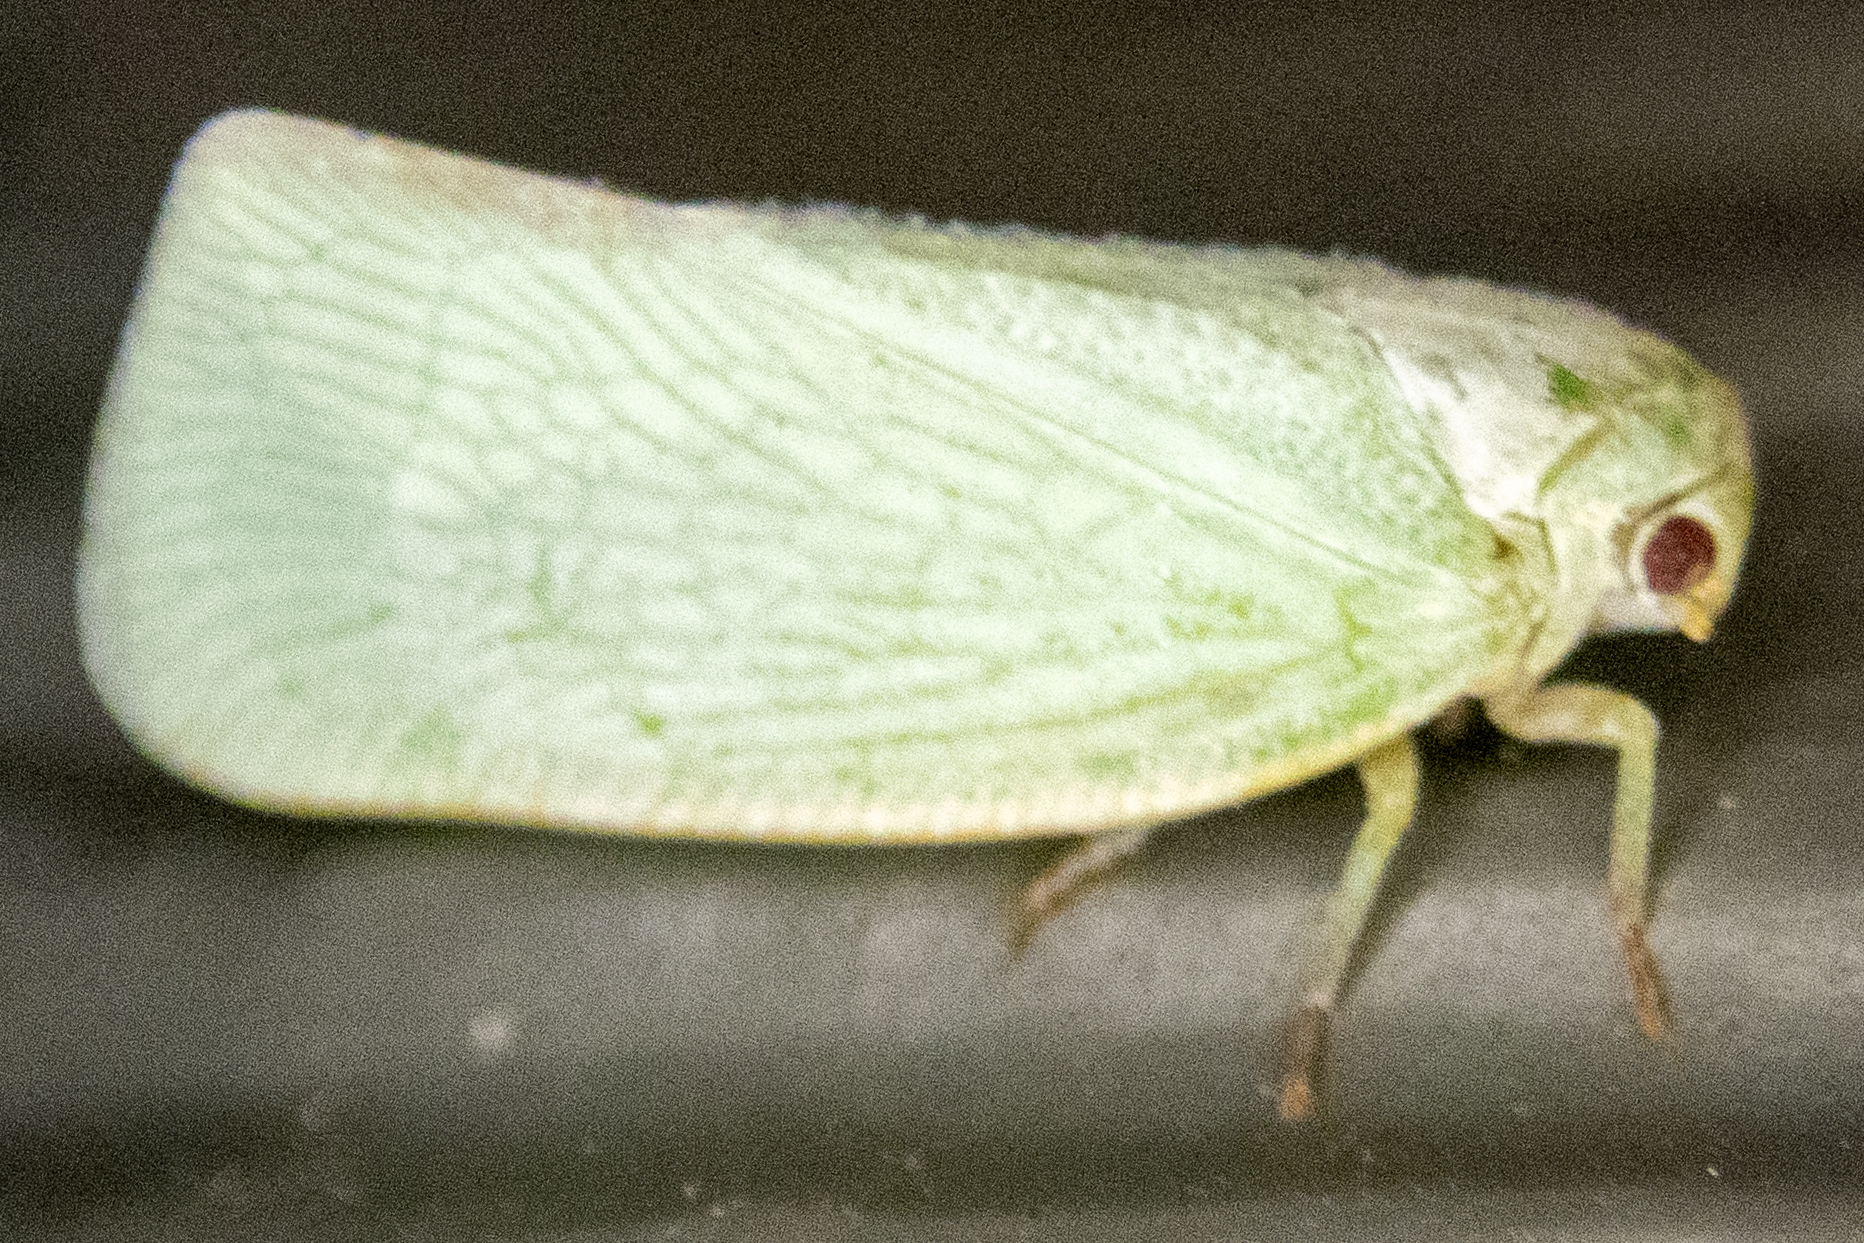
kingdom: Animalia
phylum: Arthropoda
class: Insecta
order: Hemiptera
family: Flatidae
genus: Flatormenis
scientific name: Flatormenis proxima
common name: Northern flatid planthopper
